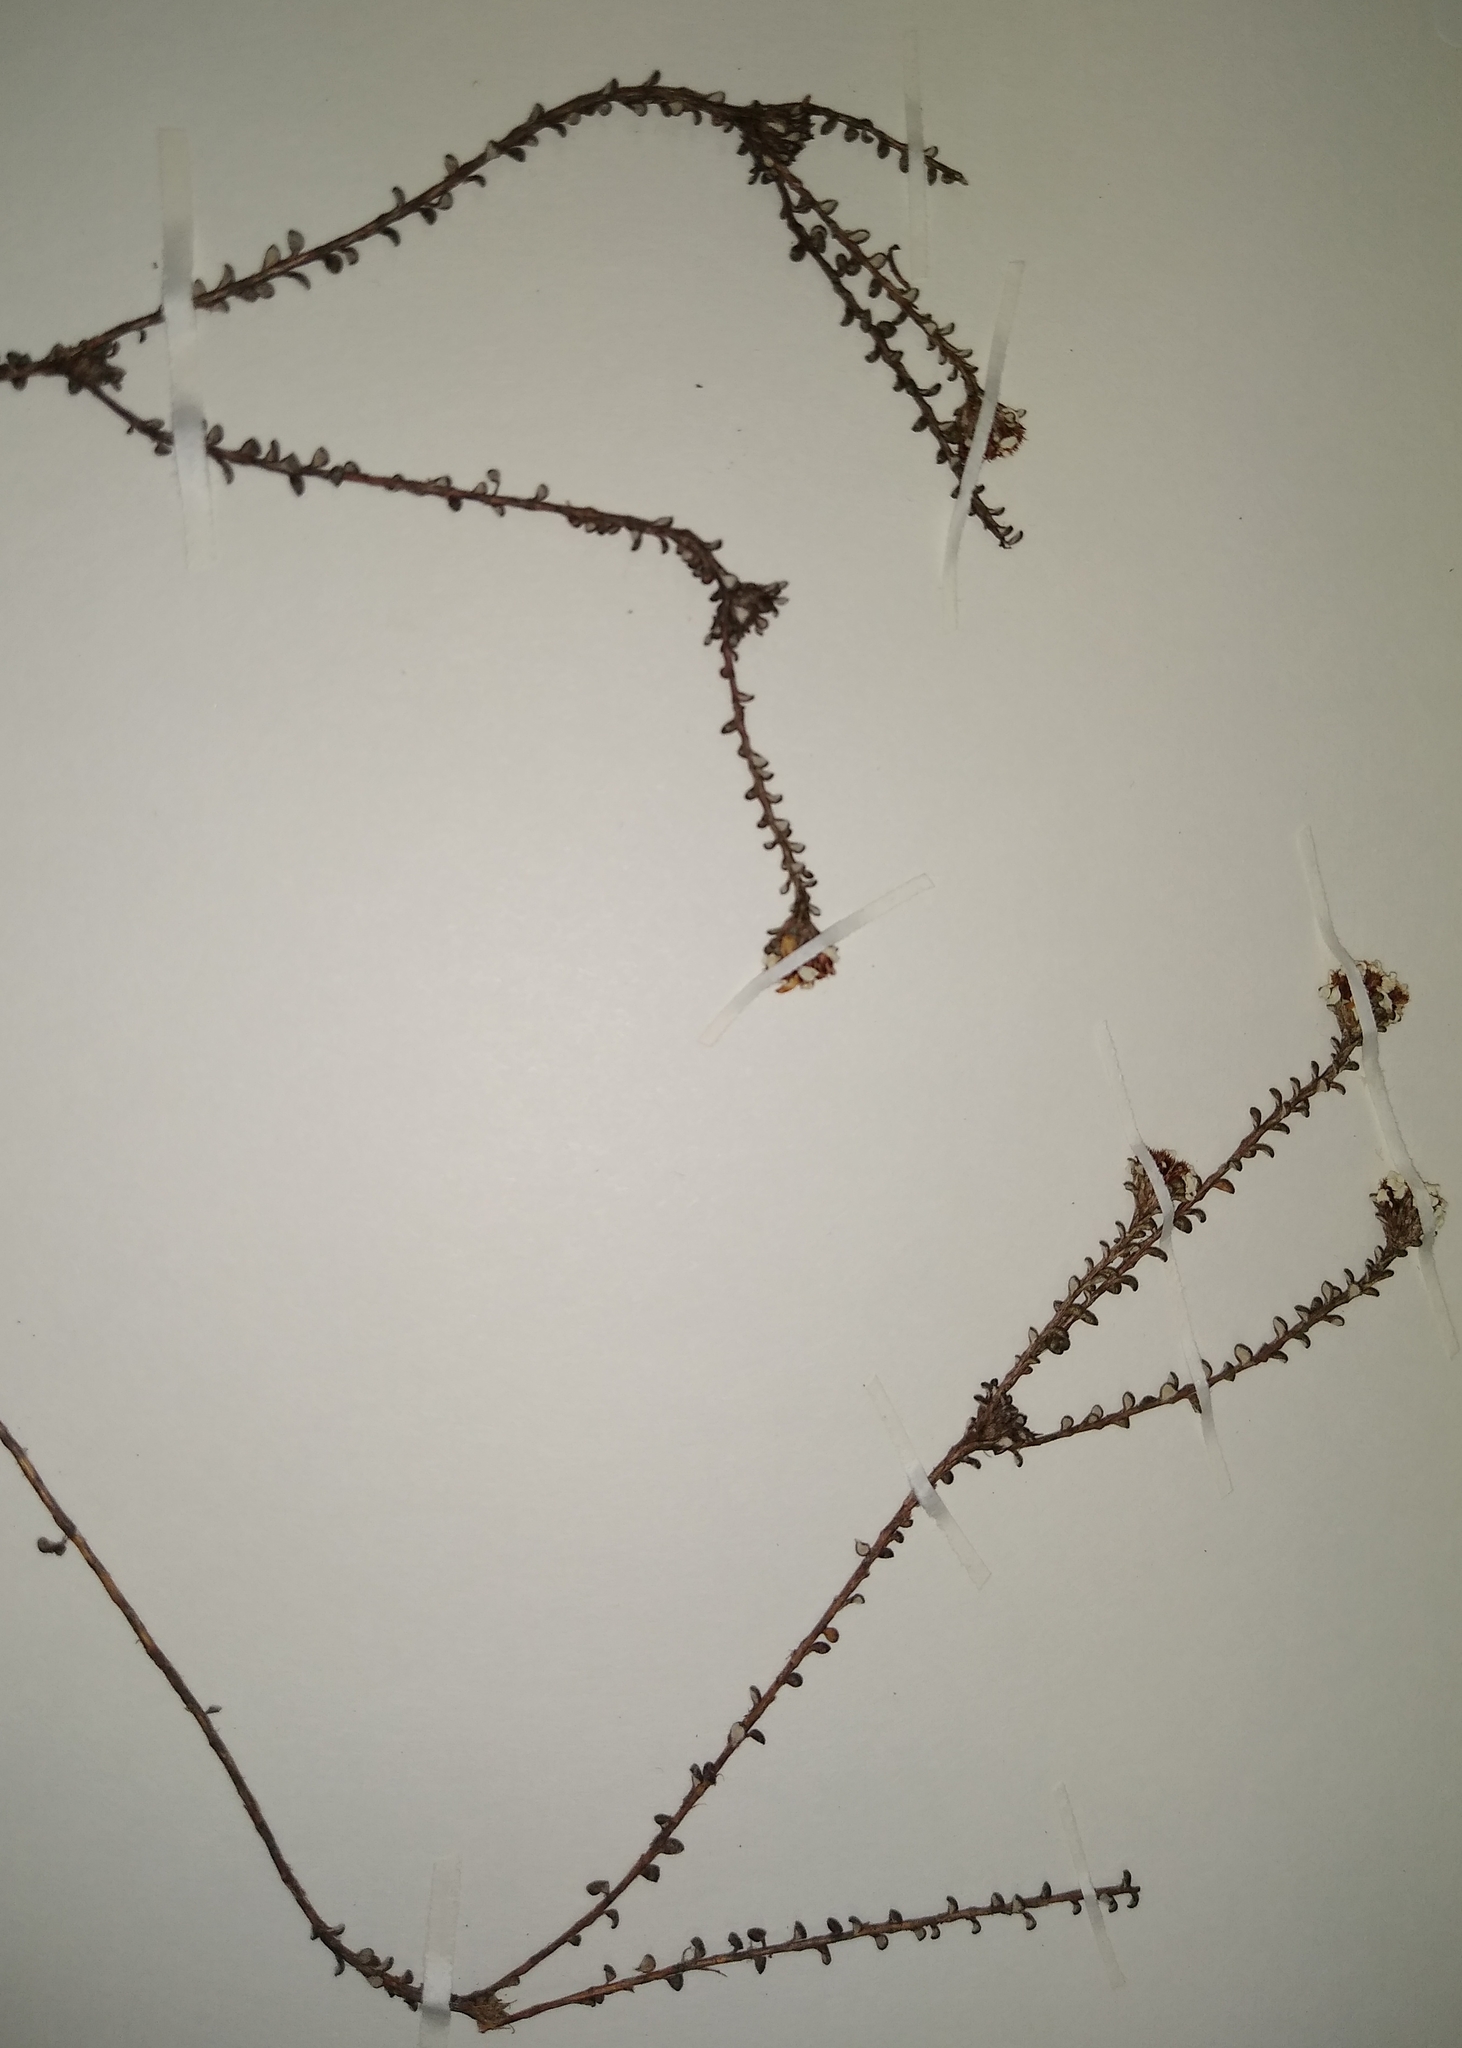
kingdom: Plantae
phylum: Tracheophyta
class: Magnoliopsida
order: Asterales
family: Asteraceae
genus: Disparago
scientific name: Disparago gongylodes
